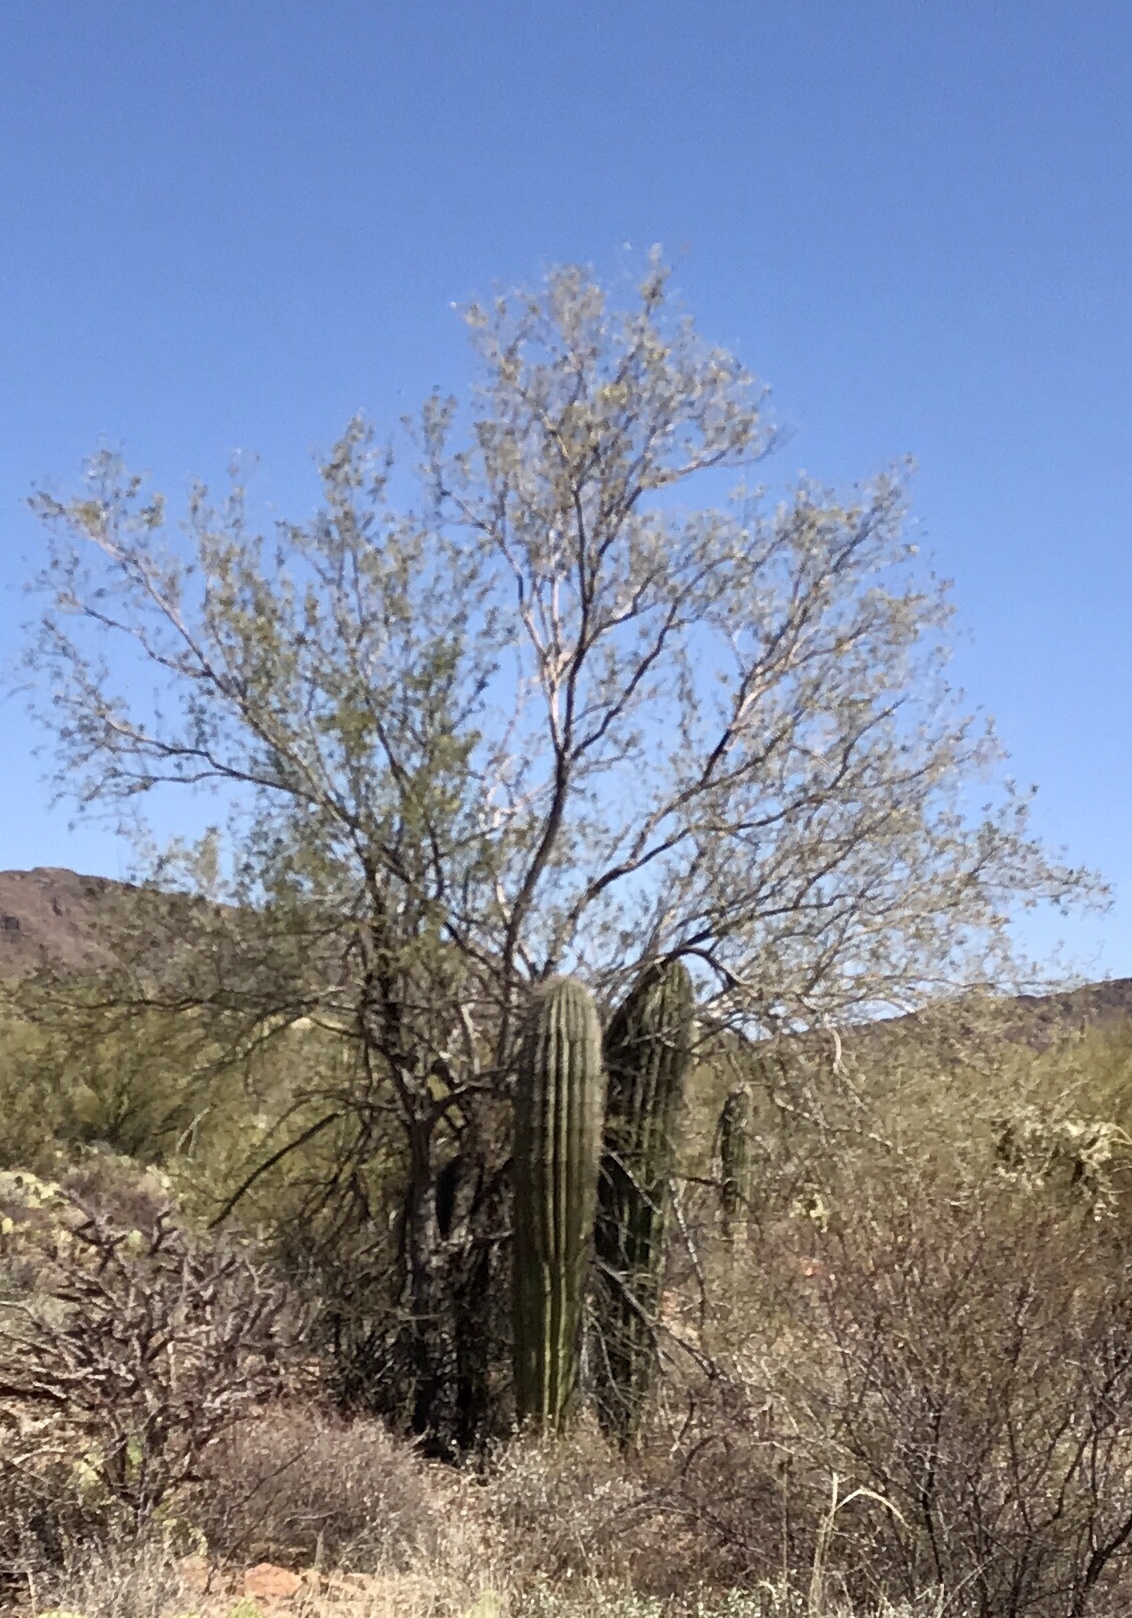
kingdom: Plantae
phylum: Tracheophyta
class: Magnoliopsida
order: Fabales
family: Fabaceae
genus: Olneya
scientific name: Olneya tesota
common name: Desert ironwood
